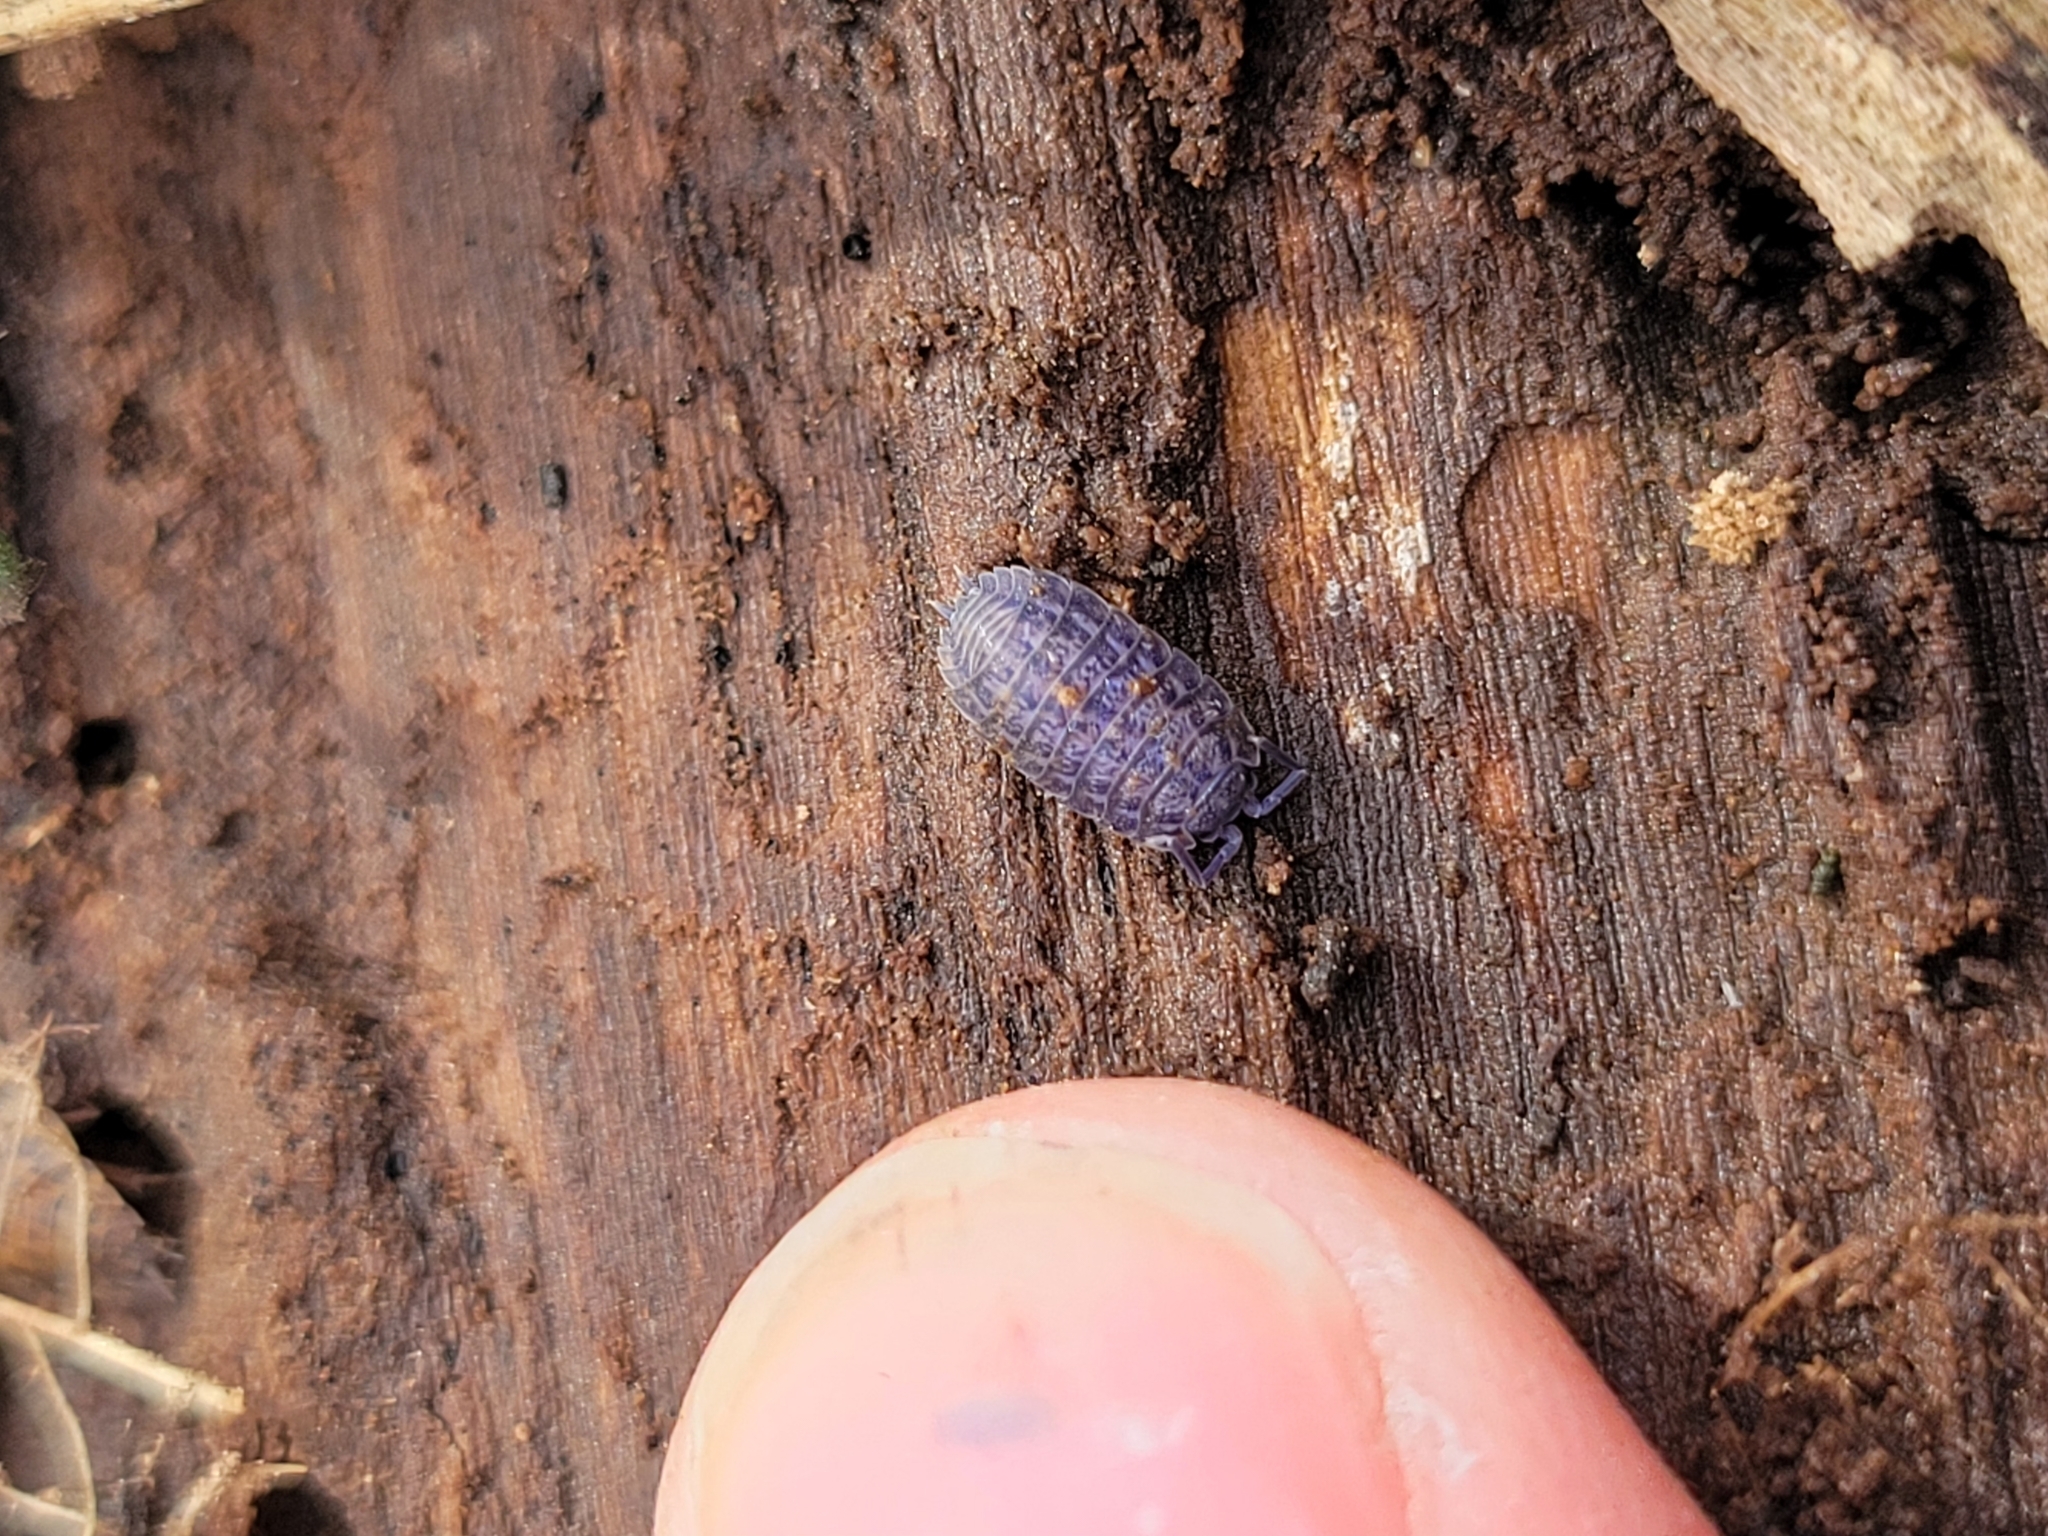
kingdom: Viruses
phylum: Nucleocytoviricota
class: Megaviricetes
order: Pimascovirales
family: Iridoviridae
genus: Iridovirus
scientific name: Iridovirus Invertebrate iridescent virus 31
